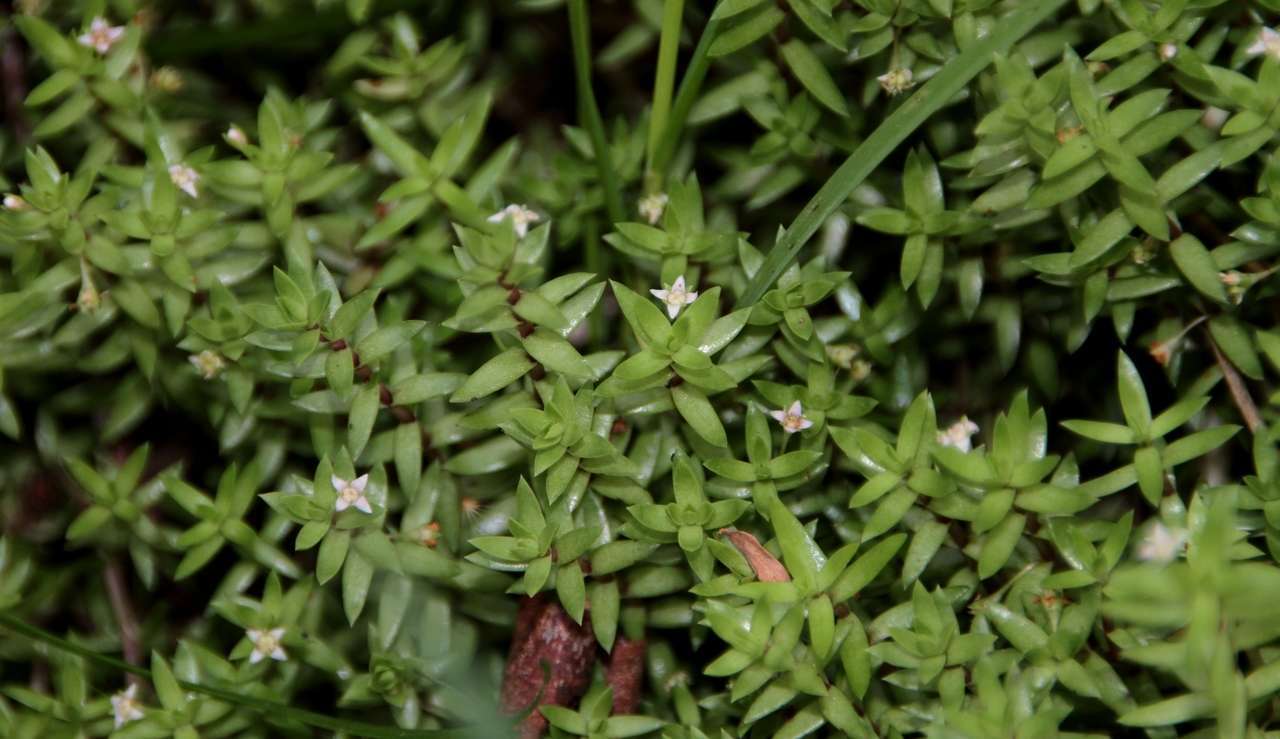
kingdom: Plantae
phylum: Tracheophyta
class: Magnoliopsida
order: Saxifragales
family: Crassulaceae
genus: Crassula
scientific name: Crassula helmsii
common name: New zealand pigmyweed
